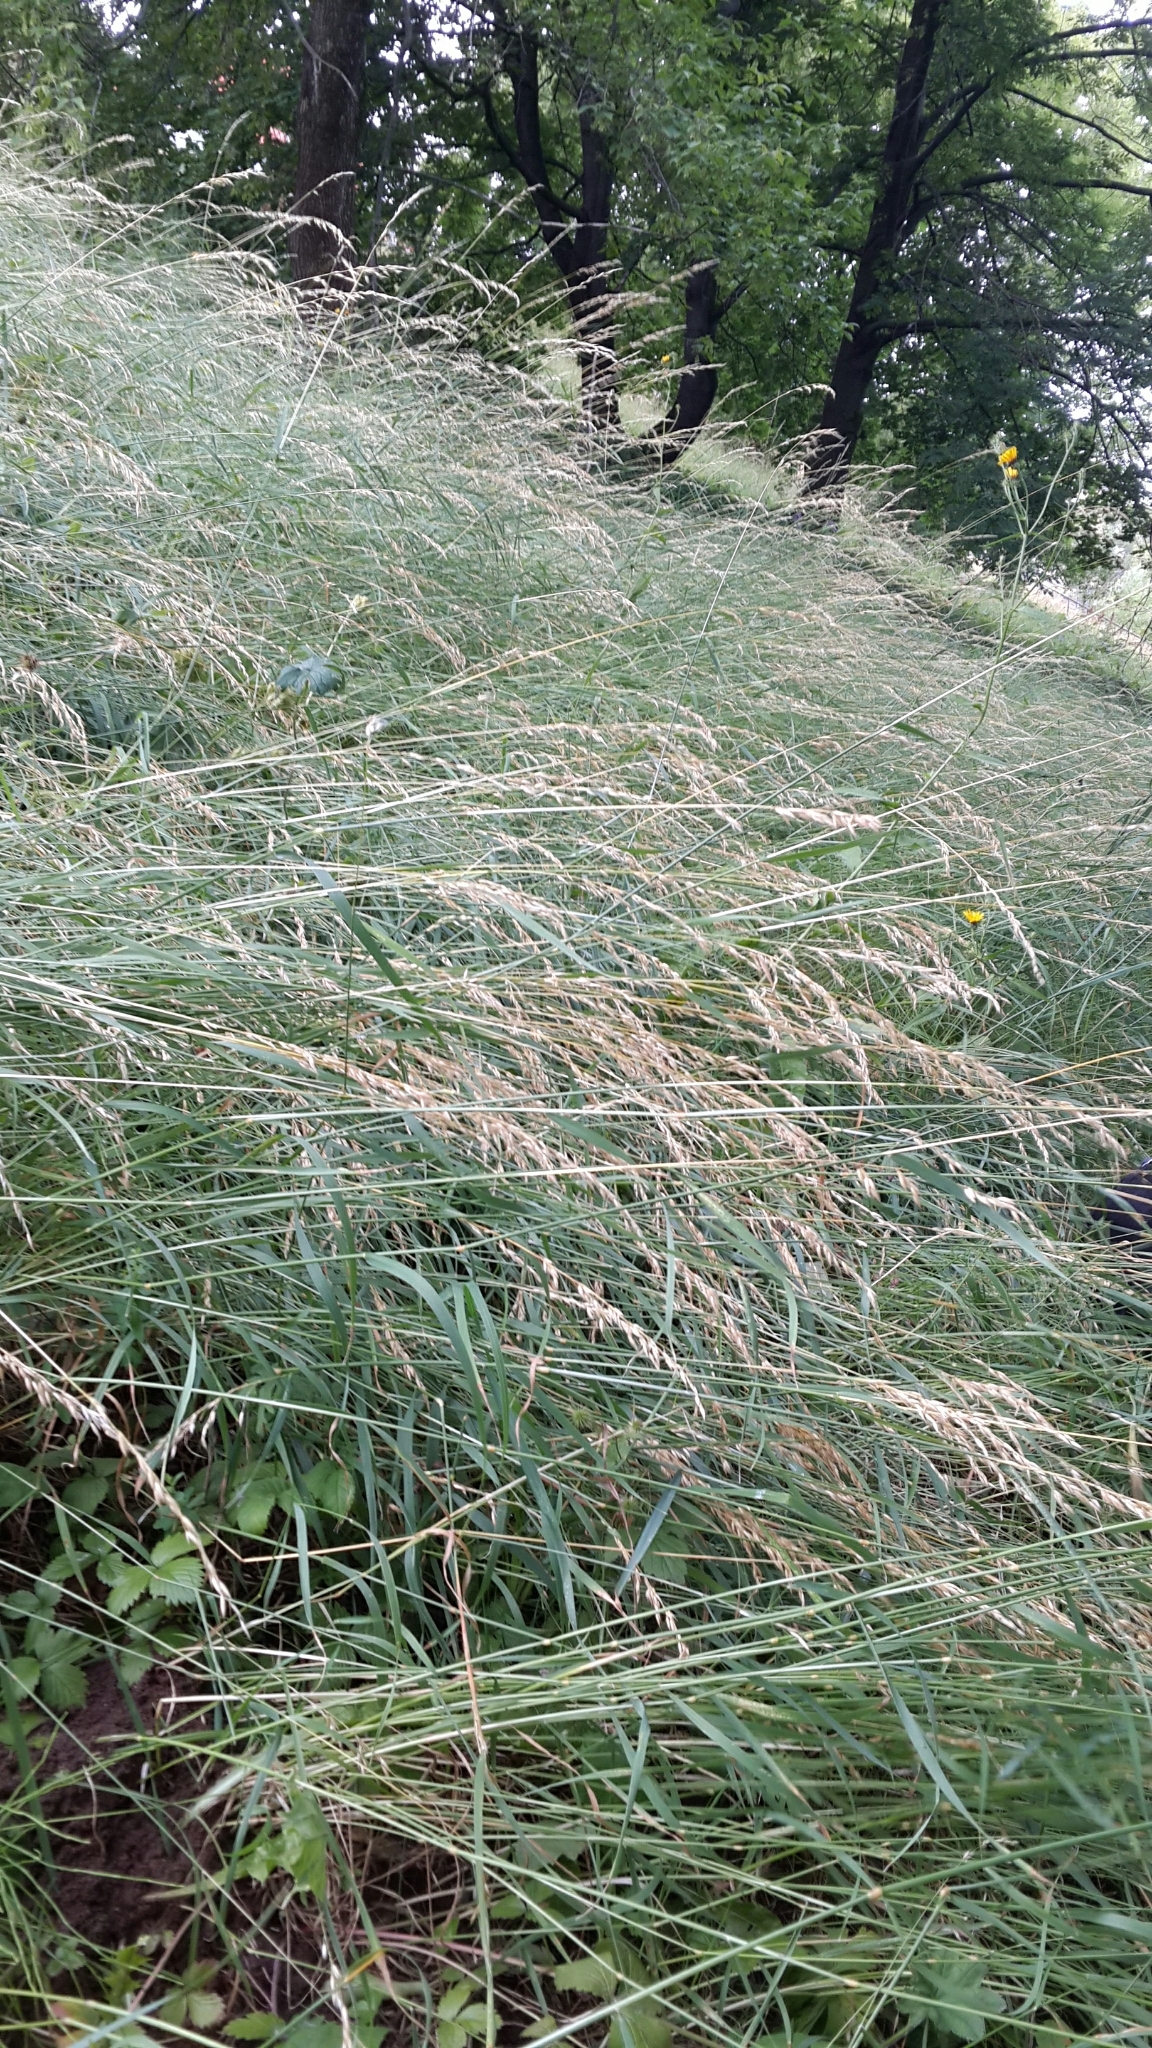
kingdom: Plantae
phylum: Tracheophyta
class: Liliopsida
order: Poales
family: Poaceae
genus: Lolium
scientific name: Lolium pratense
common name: Dover grass
